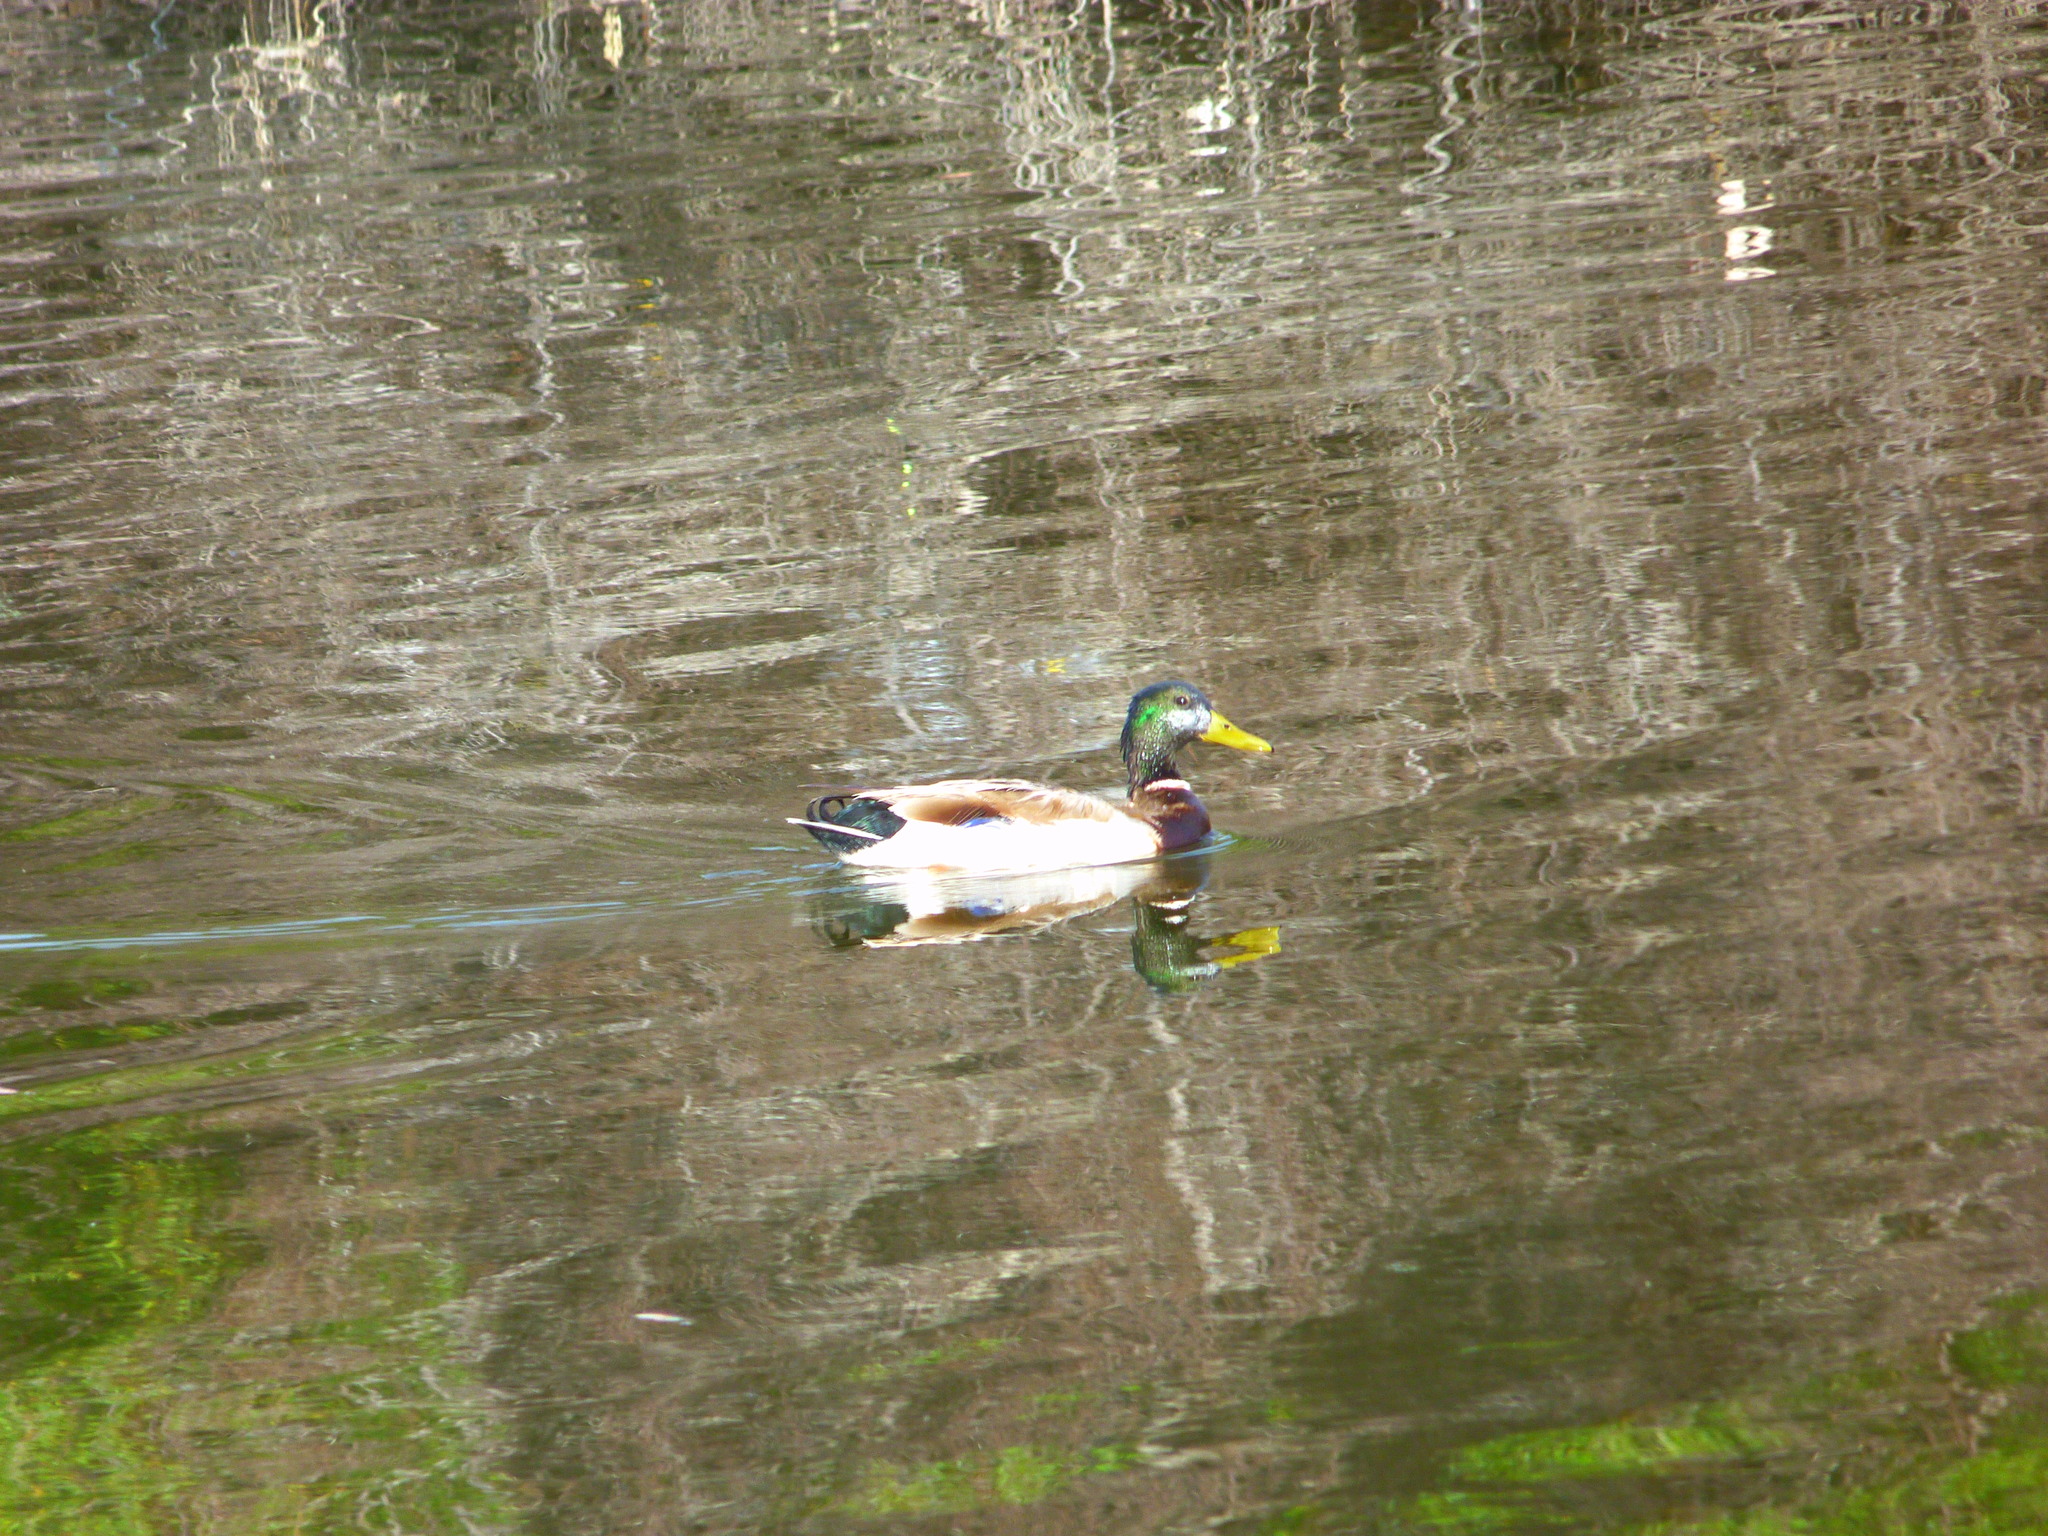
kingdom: Animalia
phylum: Chordata
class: Aves
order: Anseriformes
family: Anatidae
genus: Anas
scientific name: Anas platyrhynchos
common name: Mallard
